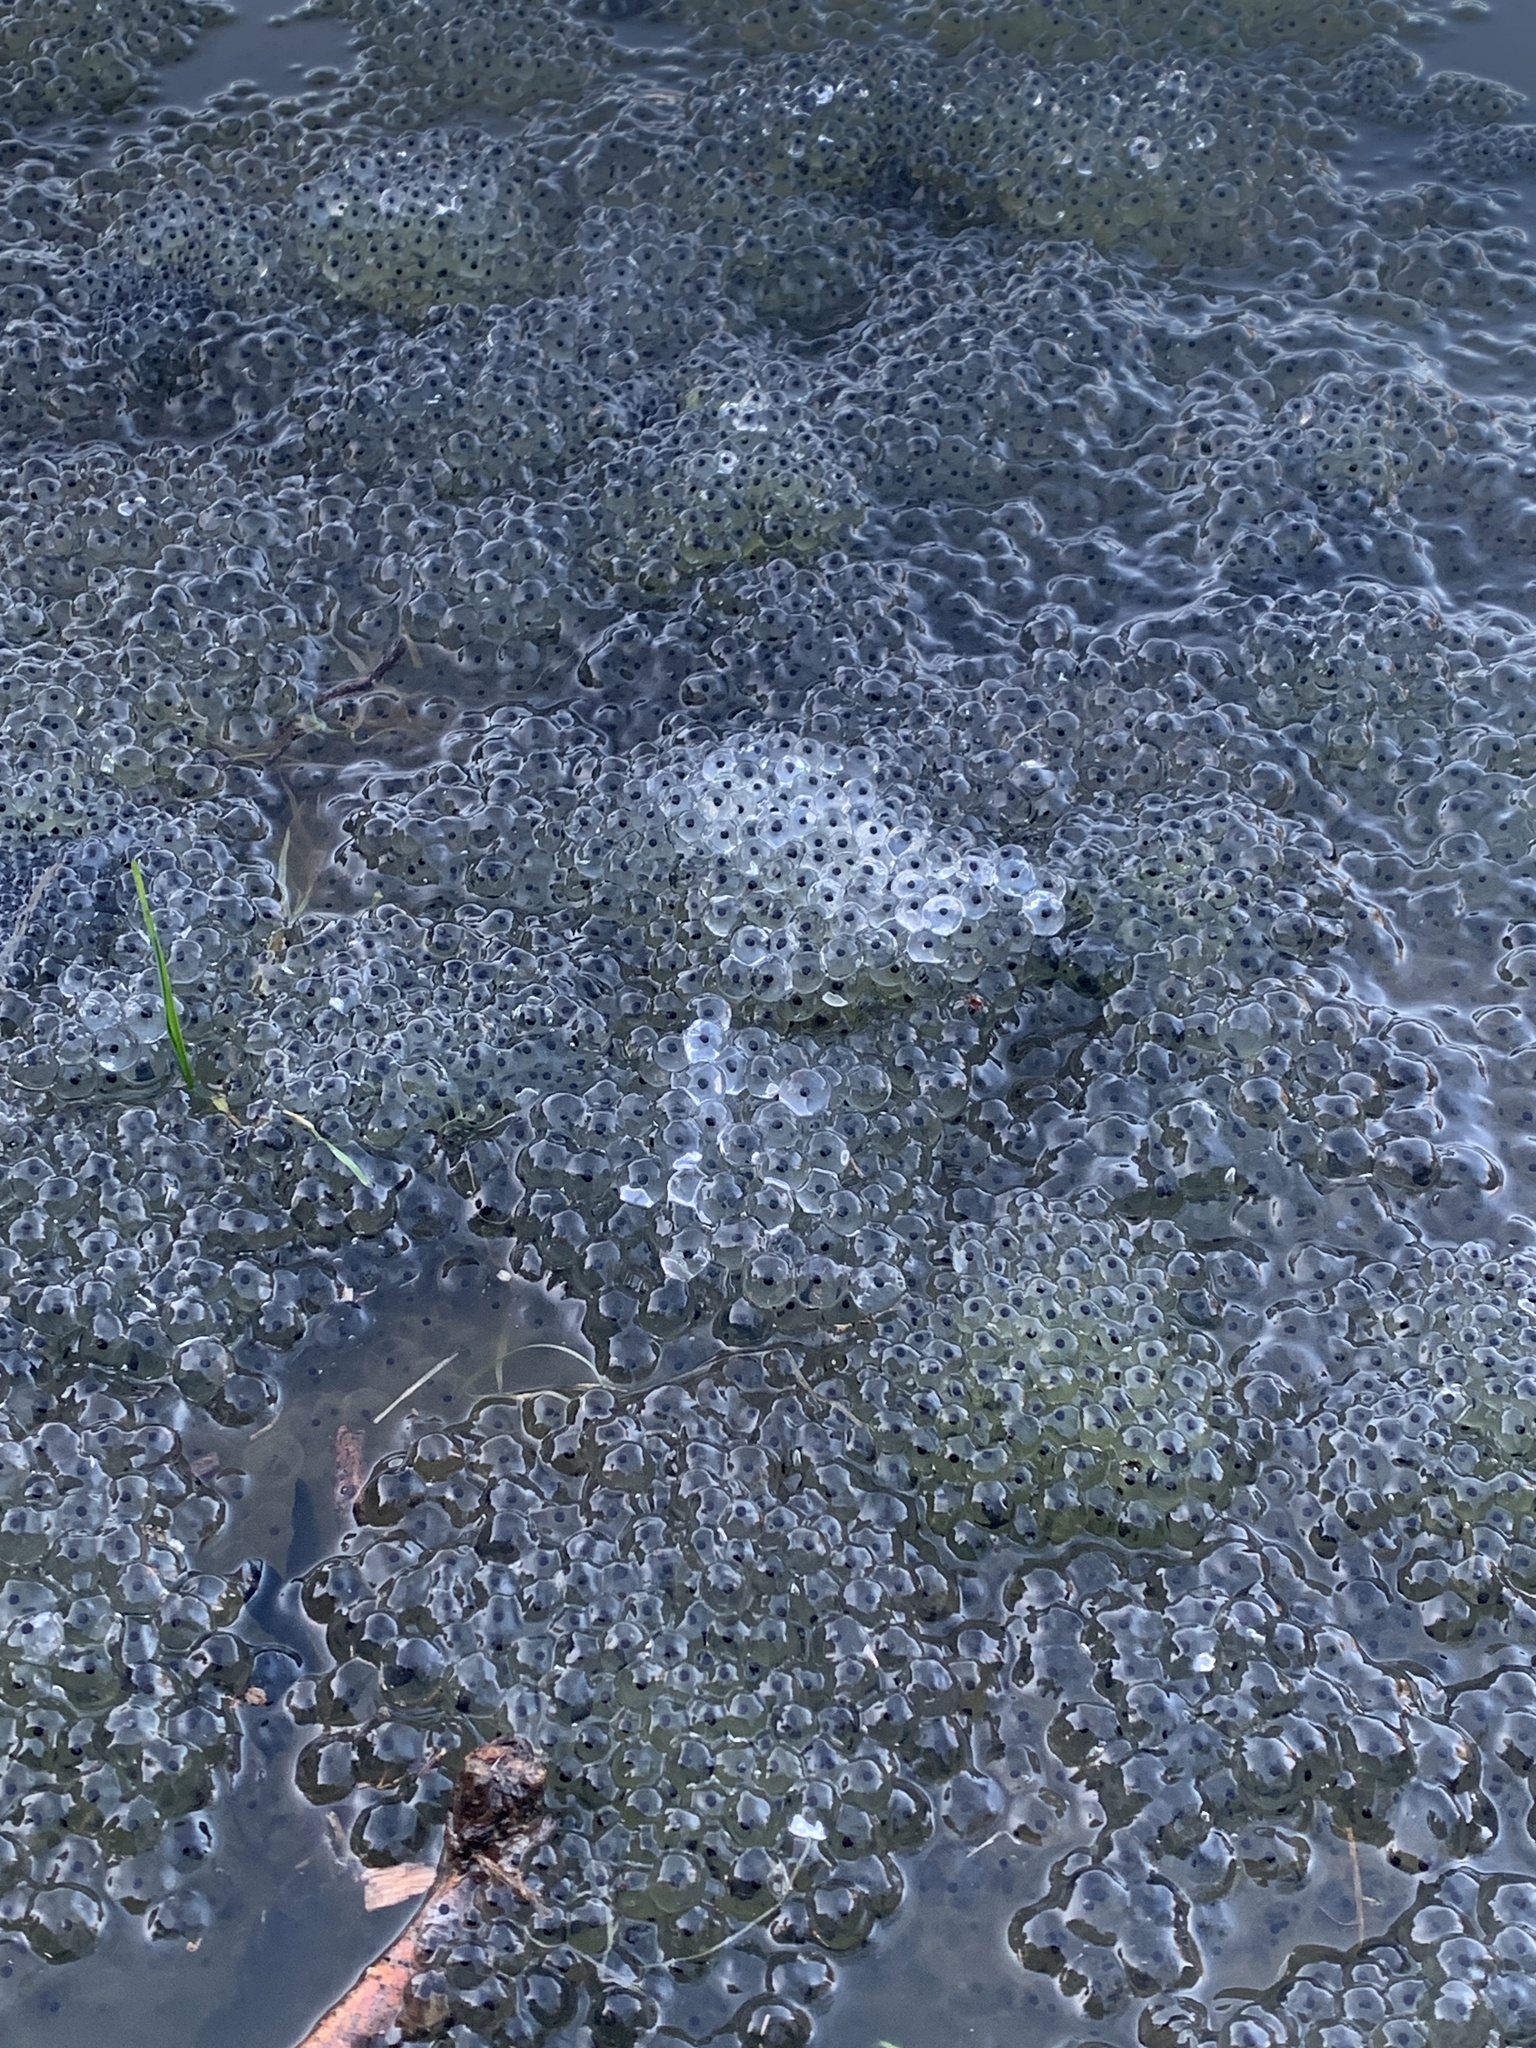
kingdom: Animalia
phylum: Chordata
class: Amphibia
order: Anura
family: Ranidae
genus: Rana
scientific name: Rana temporaria
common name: Common frog
